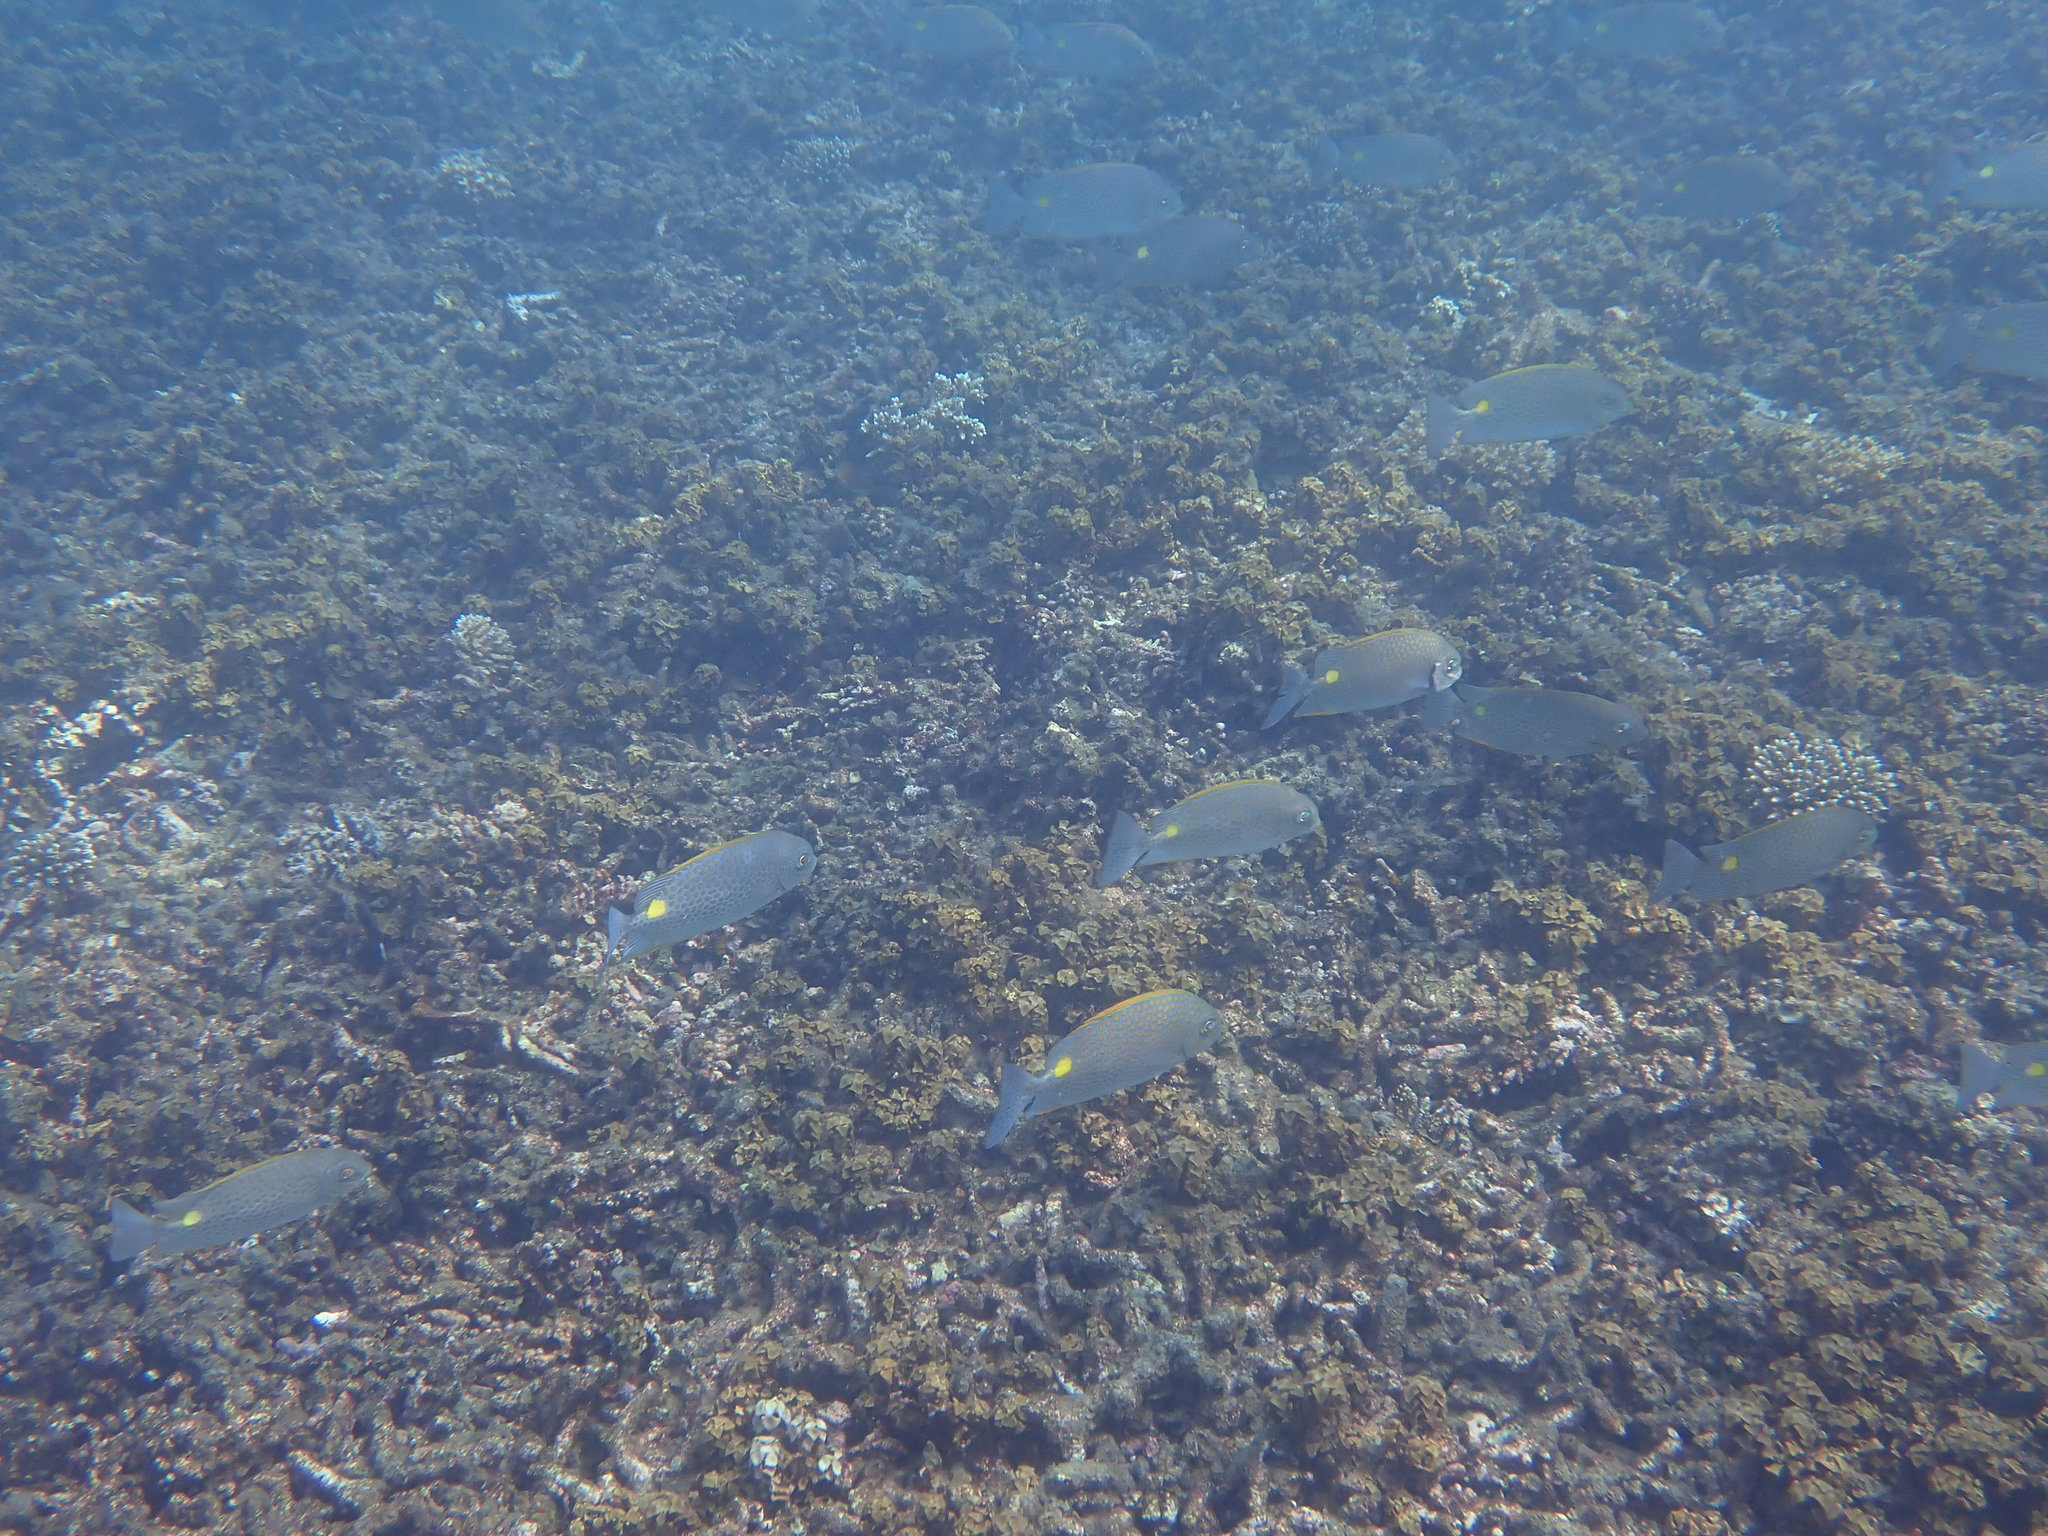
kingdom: Animalia
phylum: Chordata
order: Perciformes
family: Siganidae
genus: Siganus
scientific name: Siganus guttatus
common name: Golden rabbitfish
